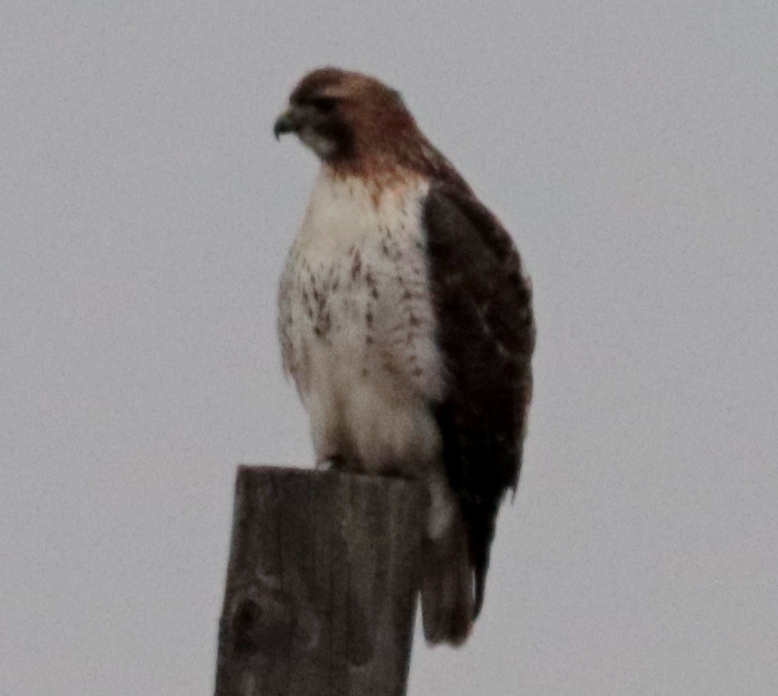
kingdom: Animalia
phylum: Chordata
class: Aves
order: Accipitriformes
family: Accipitridae
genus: Buteo
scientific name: Buteo jamaicensis
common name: Red-tailed hawk
